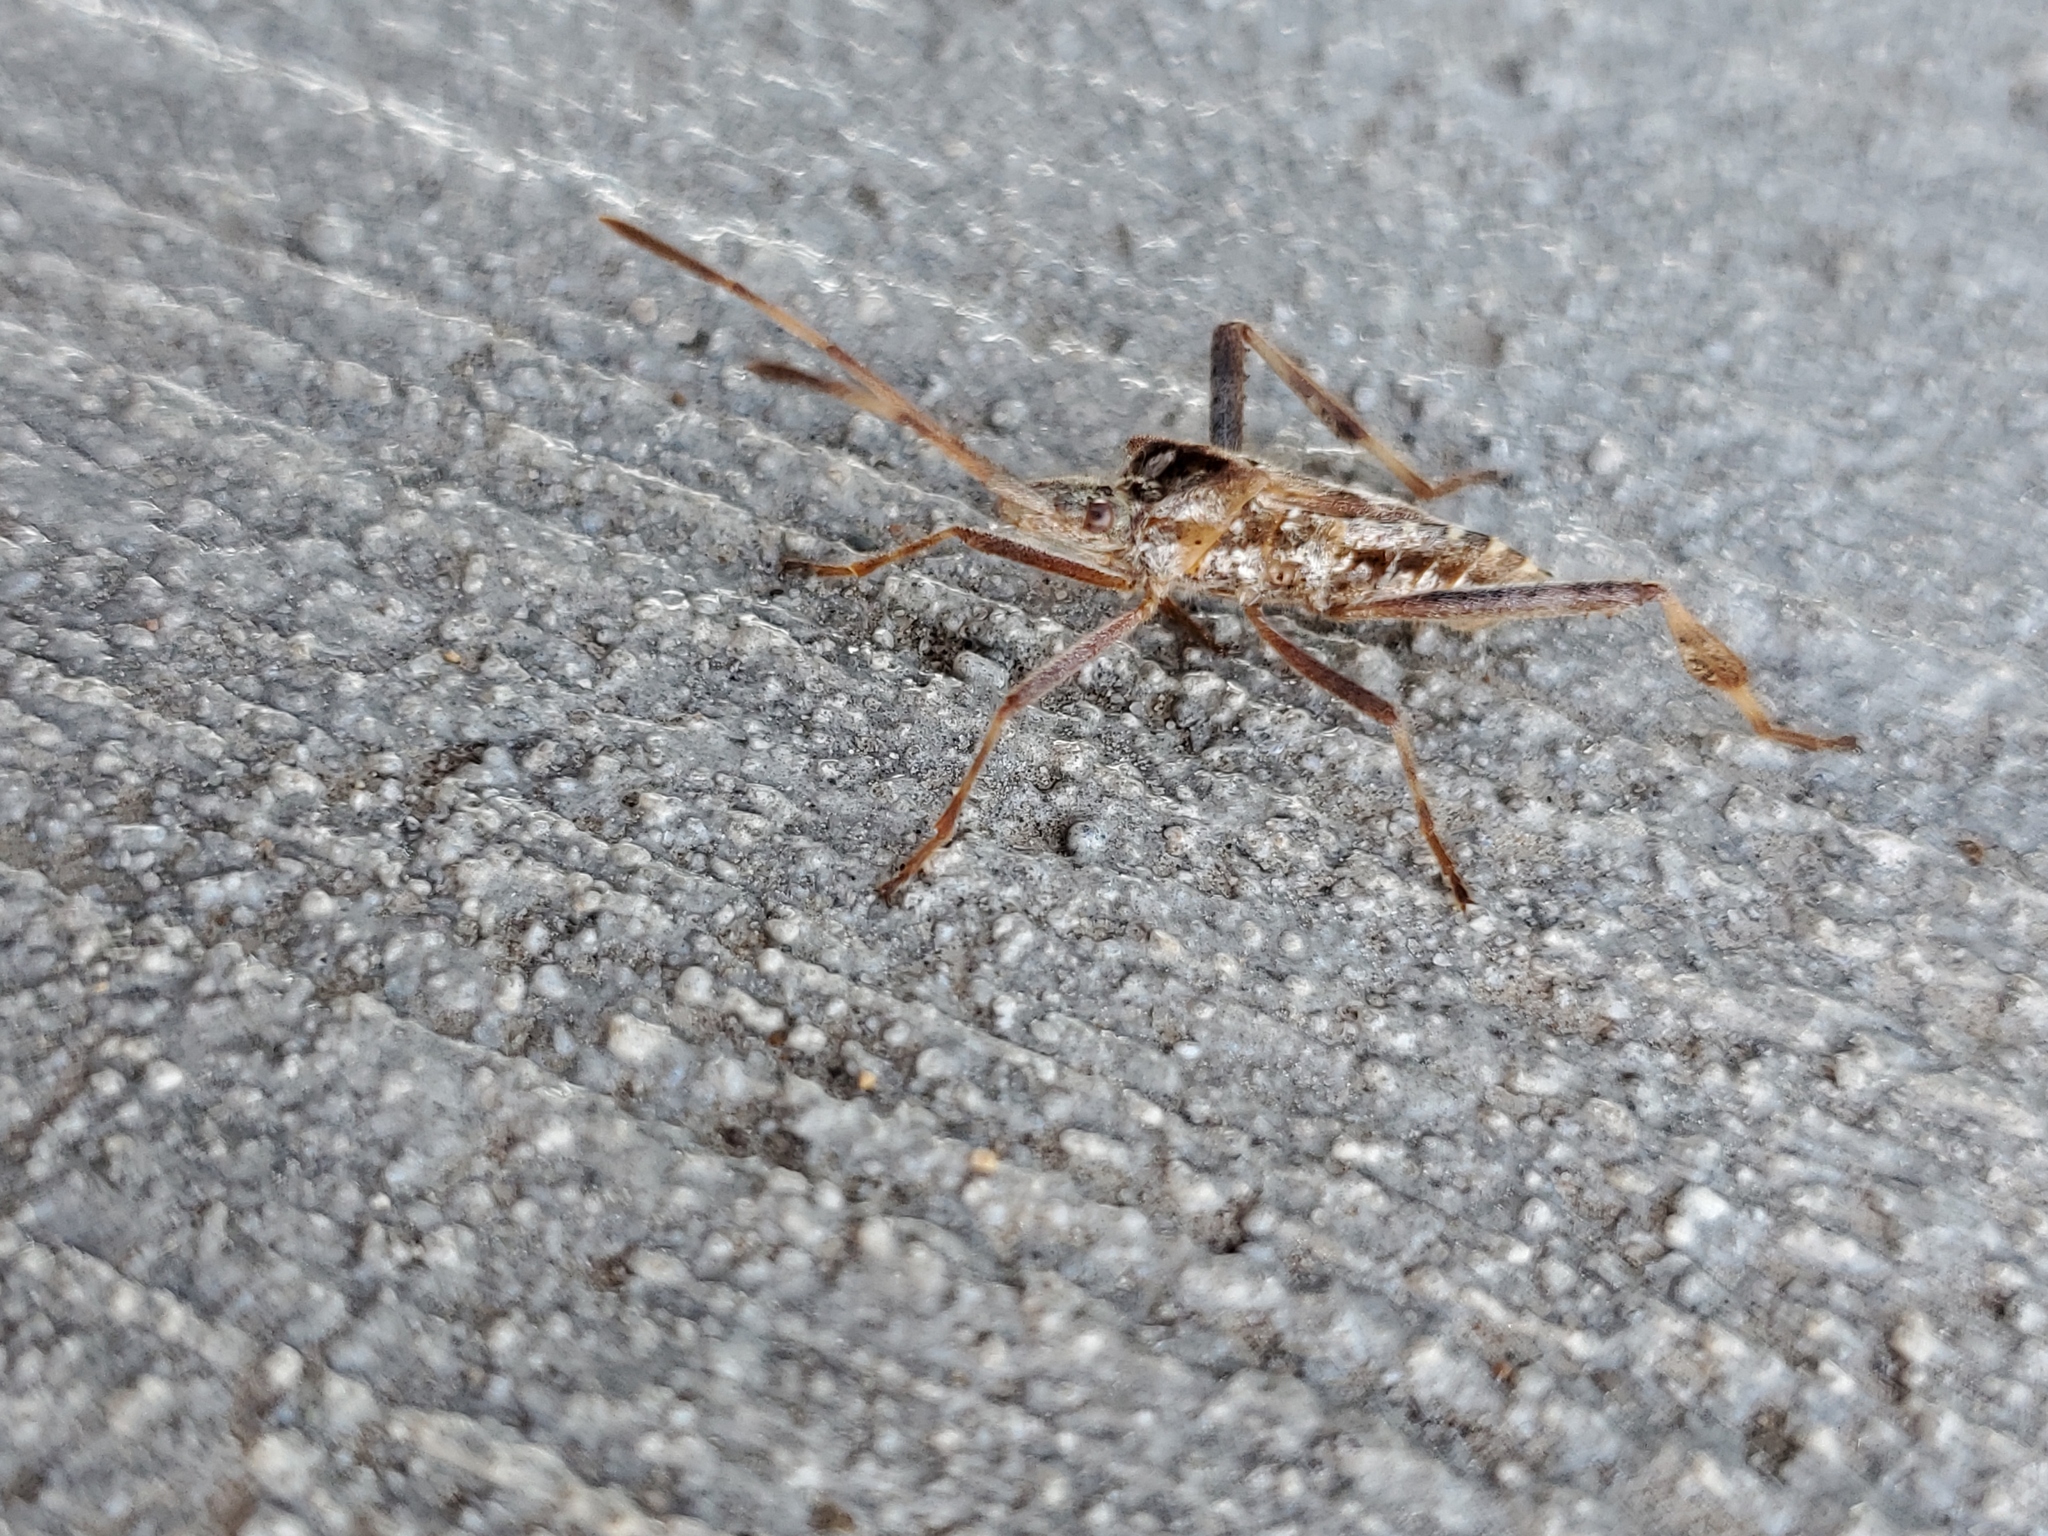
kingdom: Animalia
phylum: Arthropoda
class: Insecta
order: Hemiptera
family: Coreidae
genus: Leptoglossus
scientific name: Leptoglossus occidentalis
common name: Western conifer-seed bug
